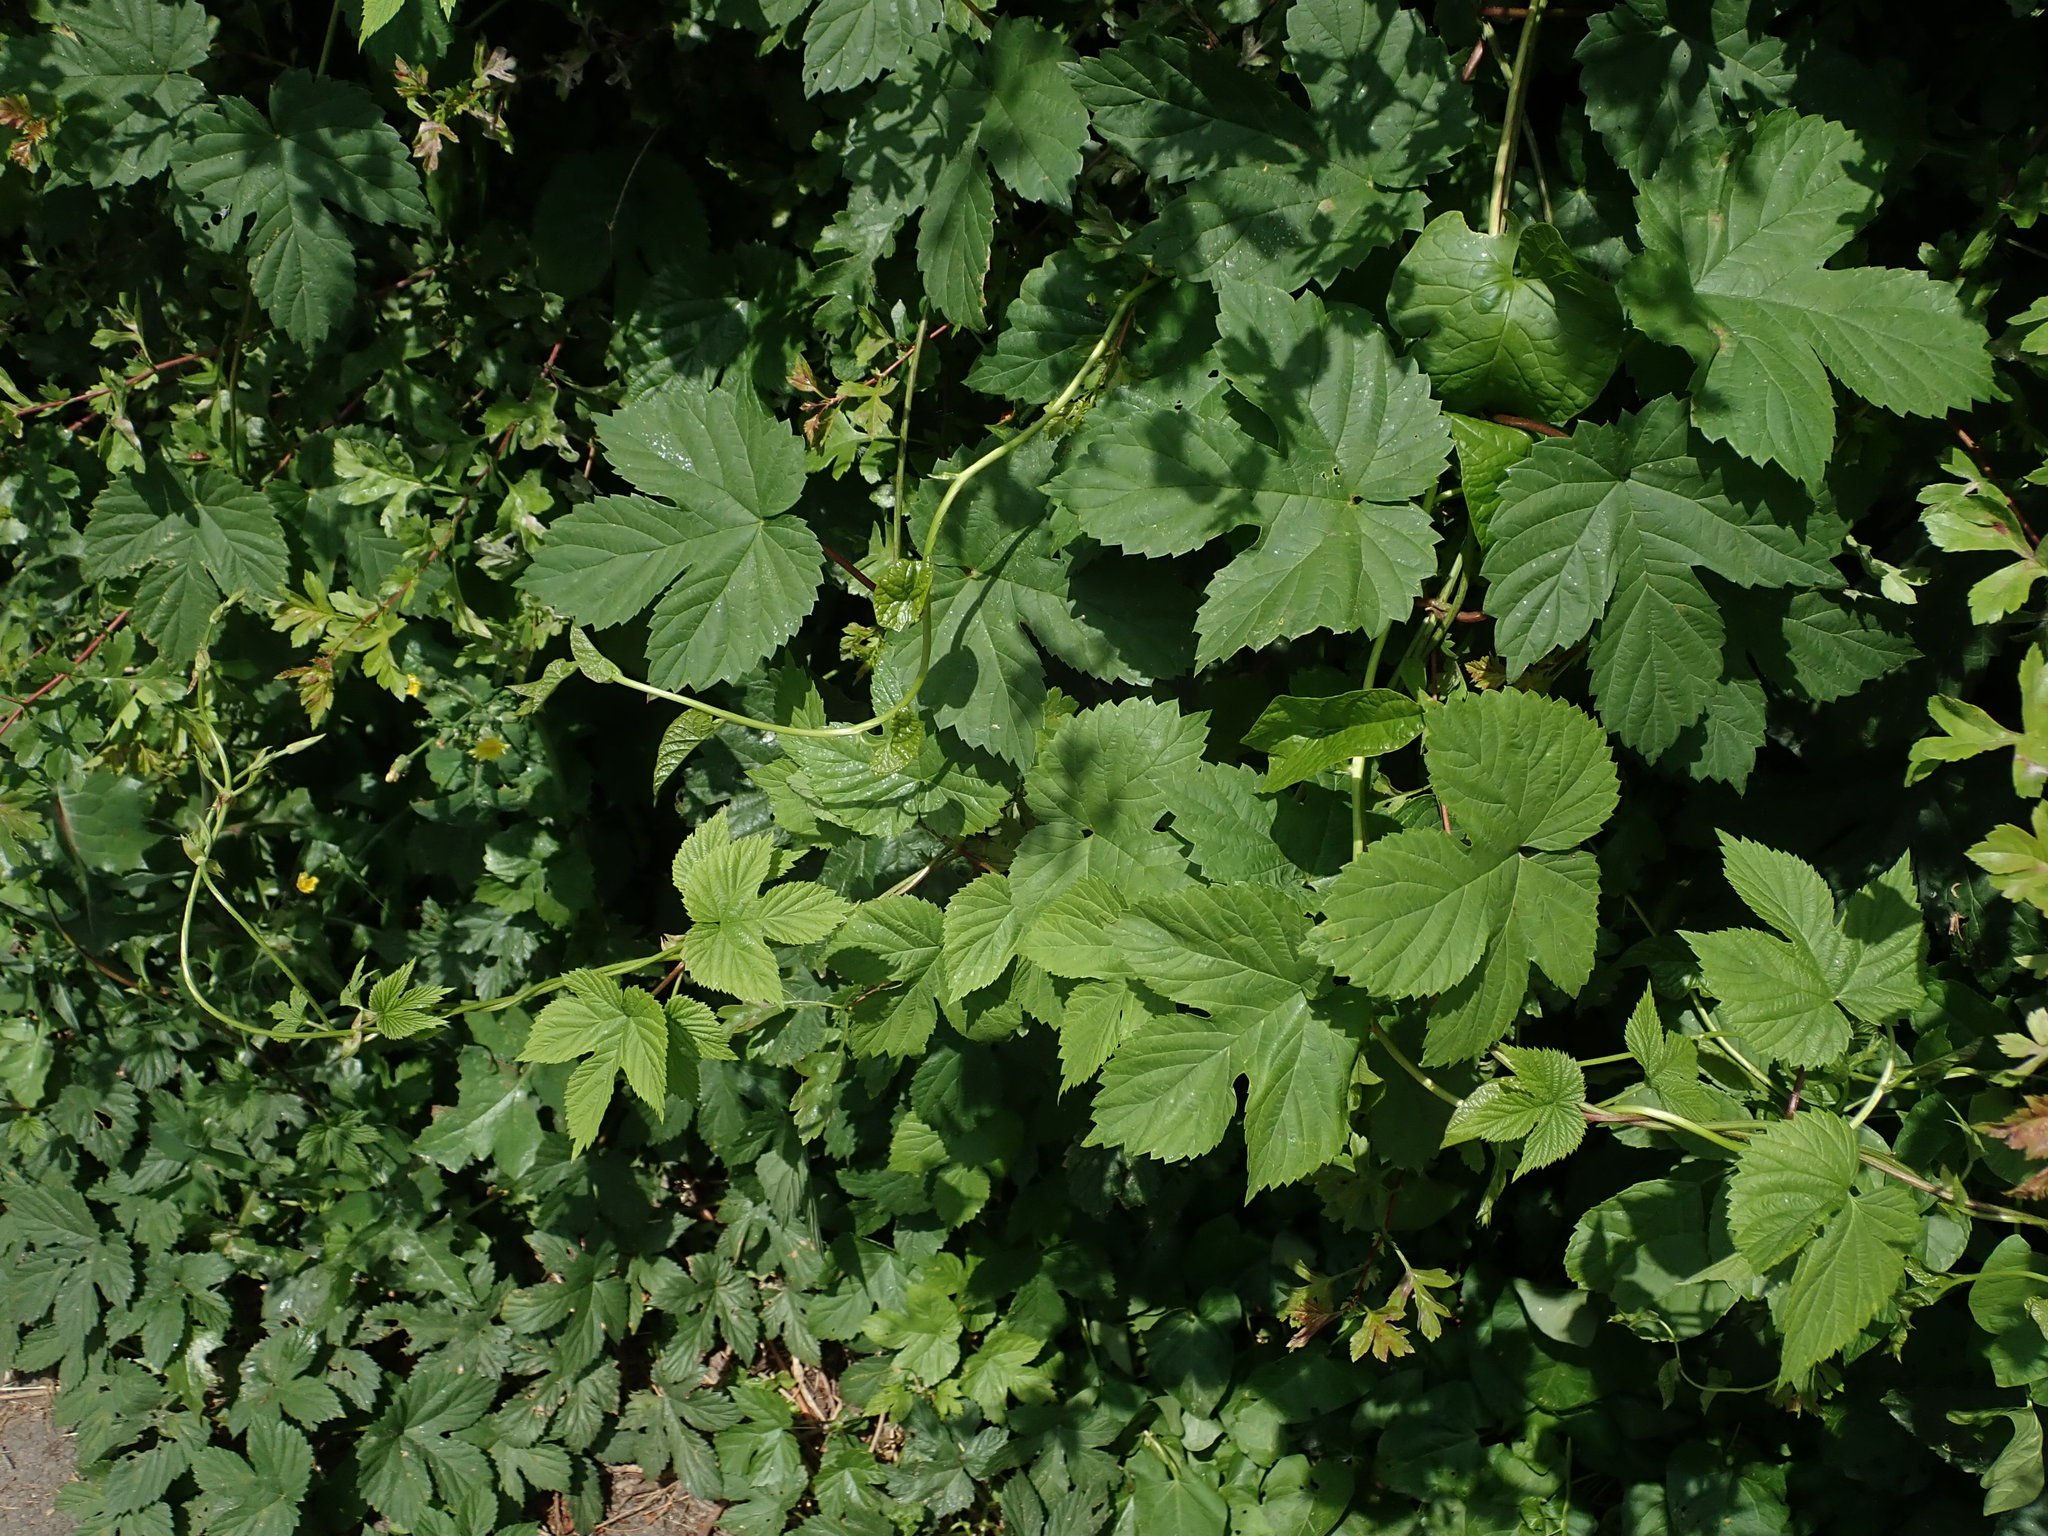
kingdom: Plantae
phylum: Tracheophyta
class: Magnoliopsida
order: Rosales
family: Cannabaceae
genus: Humulus
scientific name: Humulus lupulus
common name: Hop
